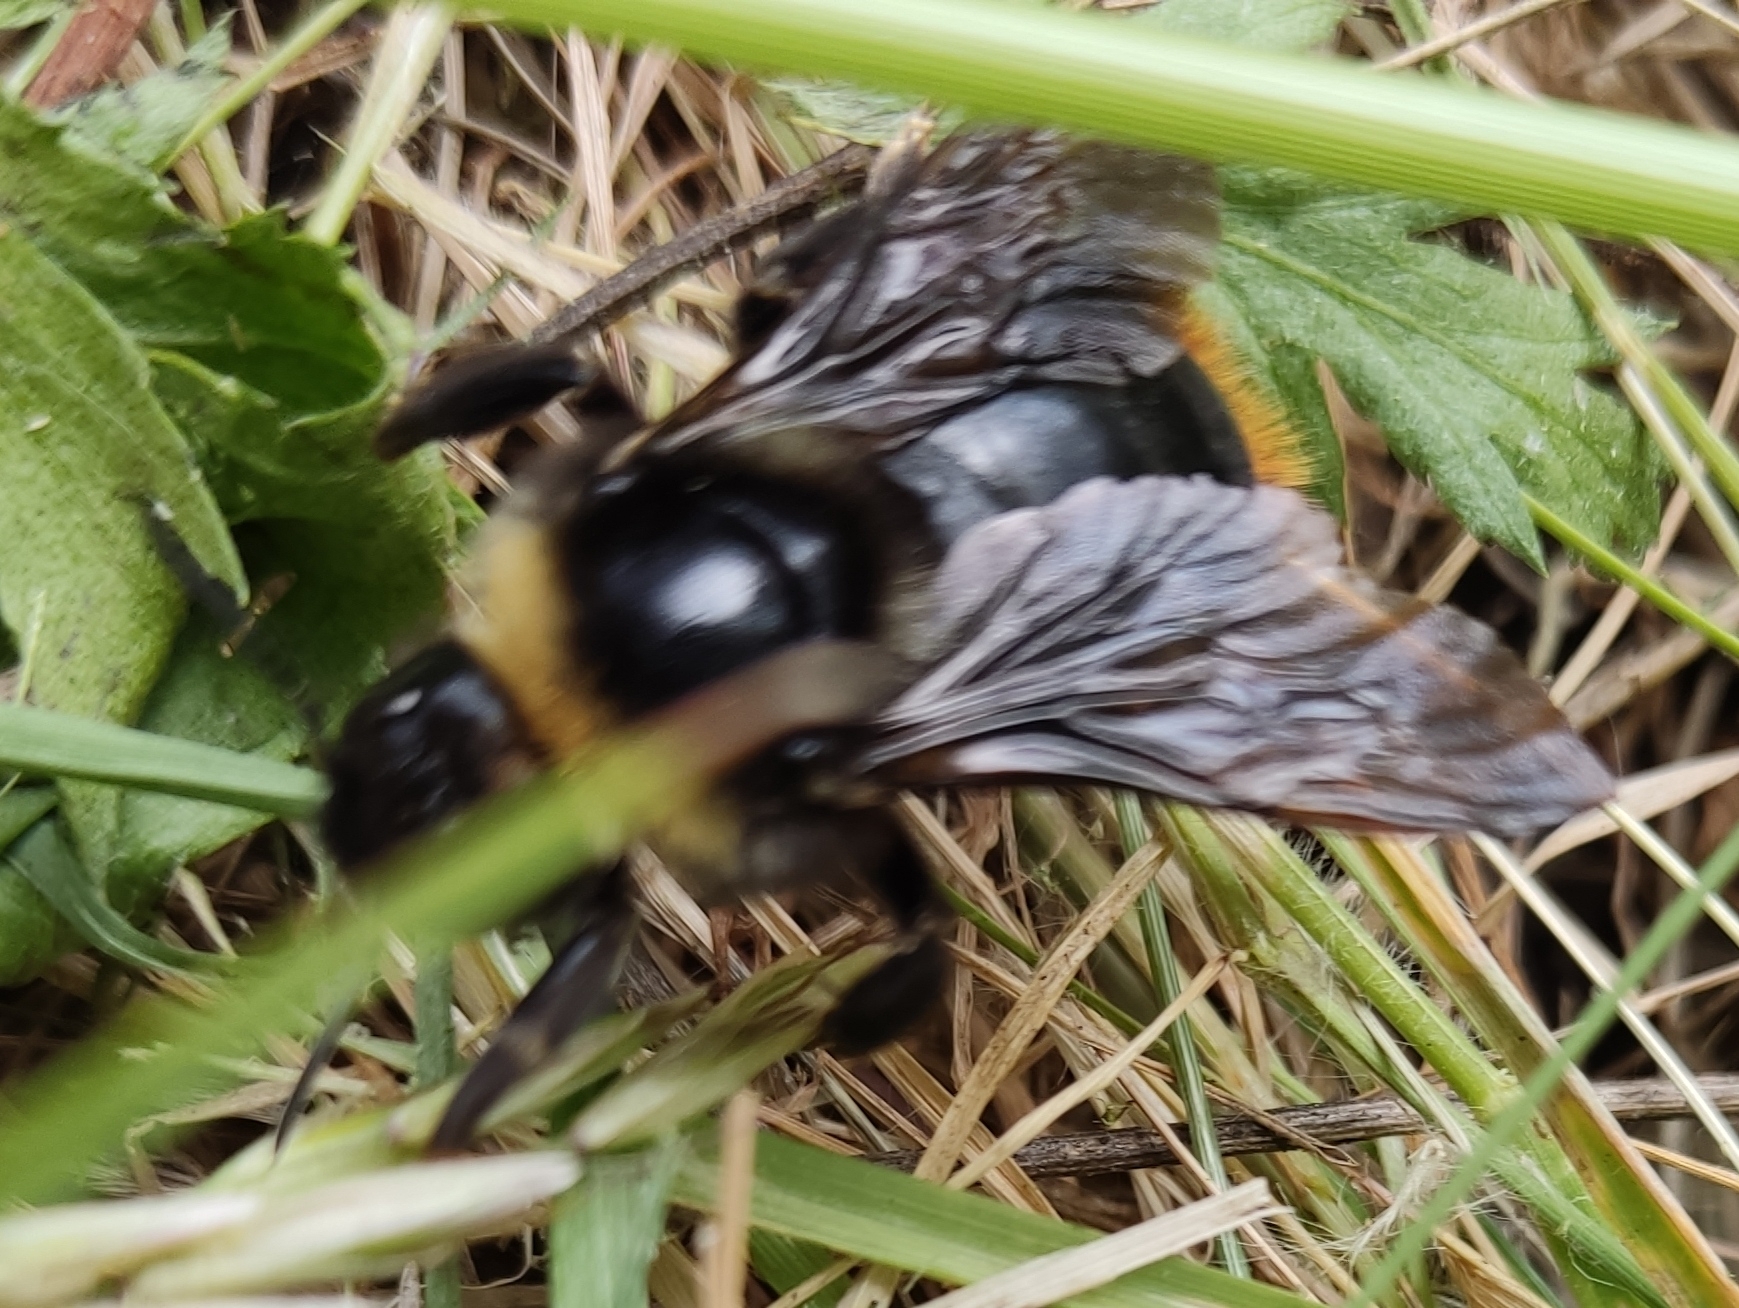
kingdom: Animalia
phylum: Arthropoda
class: Insecta
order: Hymenoptera
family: Apidae
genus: Bombus
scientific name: Bombus rupestris
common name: Hill cuckoo-bee
